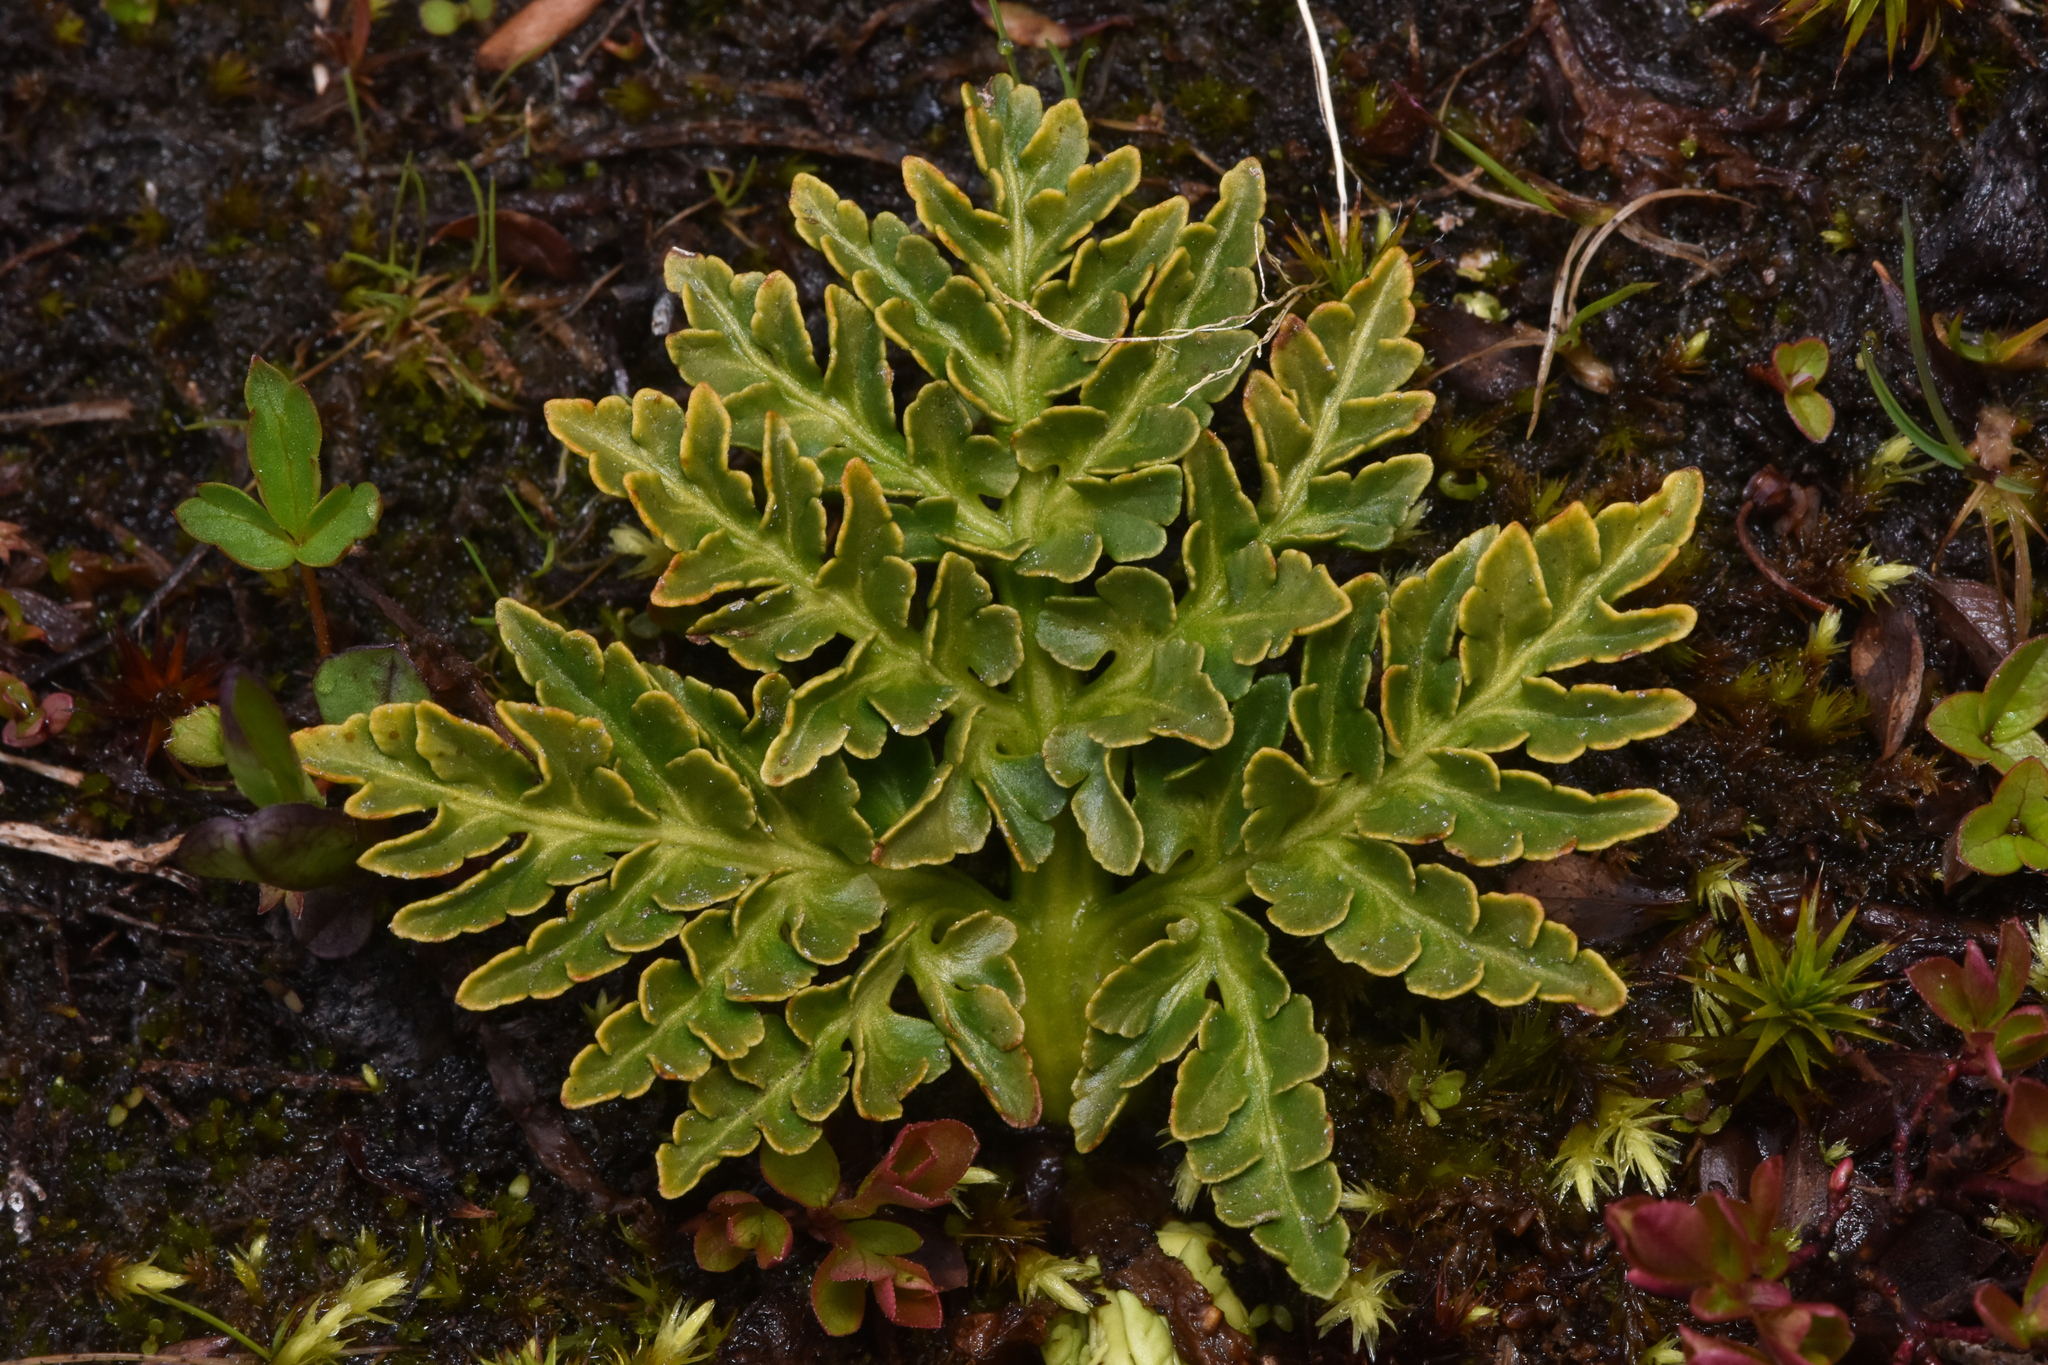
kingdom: Plantae
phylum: Tracheophyta
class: Polypodiopsida
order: Ophioglossales
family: Ophioglossaceae
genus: Sceptridium
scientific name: Sceptridium multifidum
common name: Leathery grape fern
